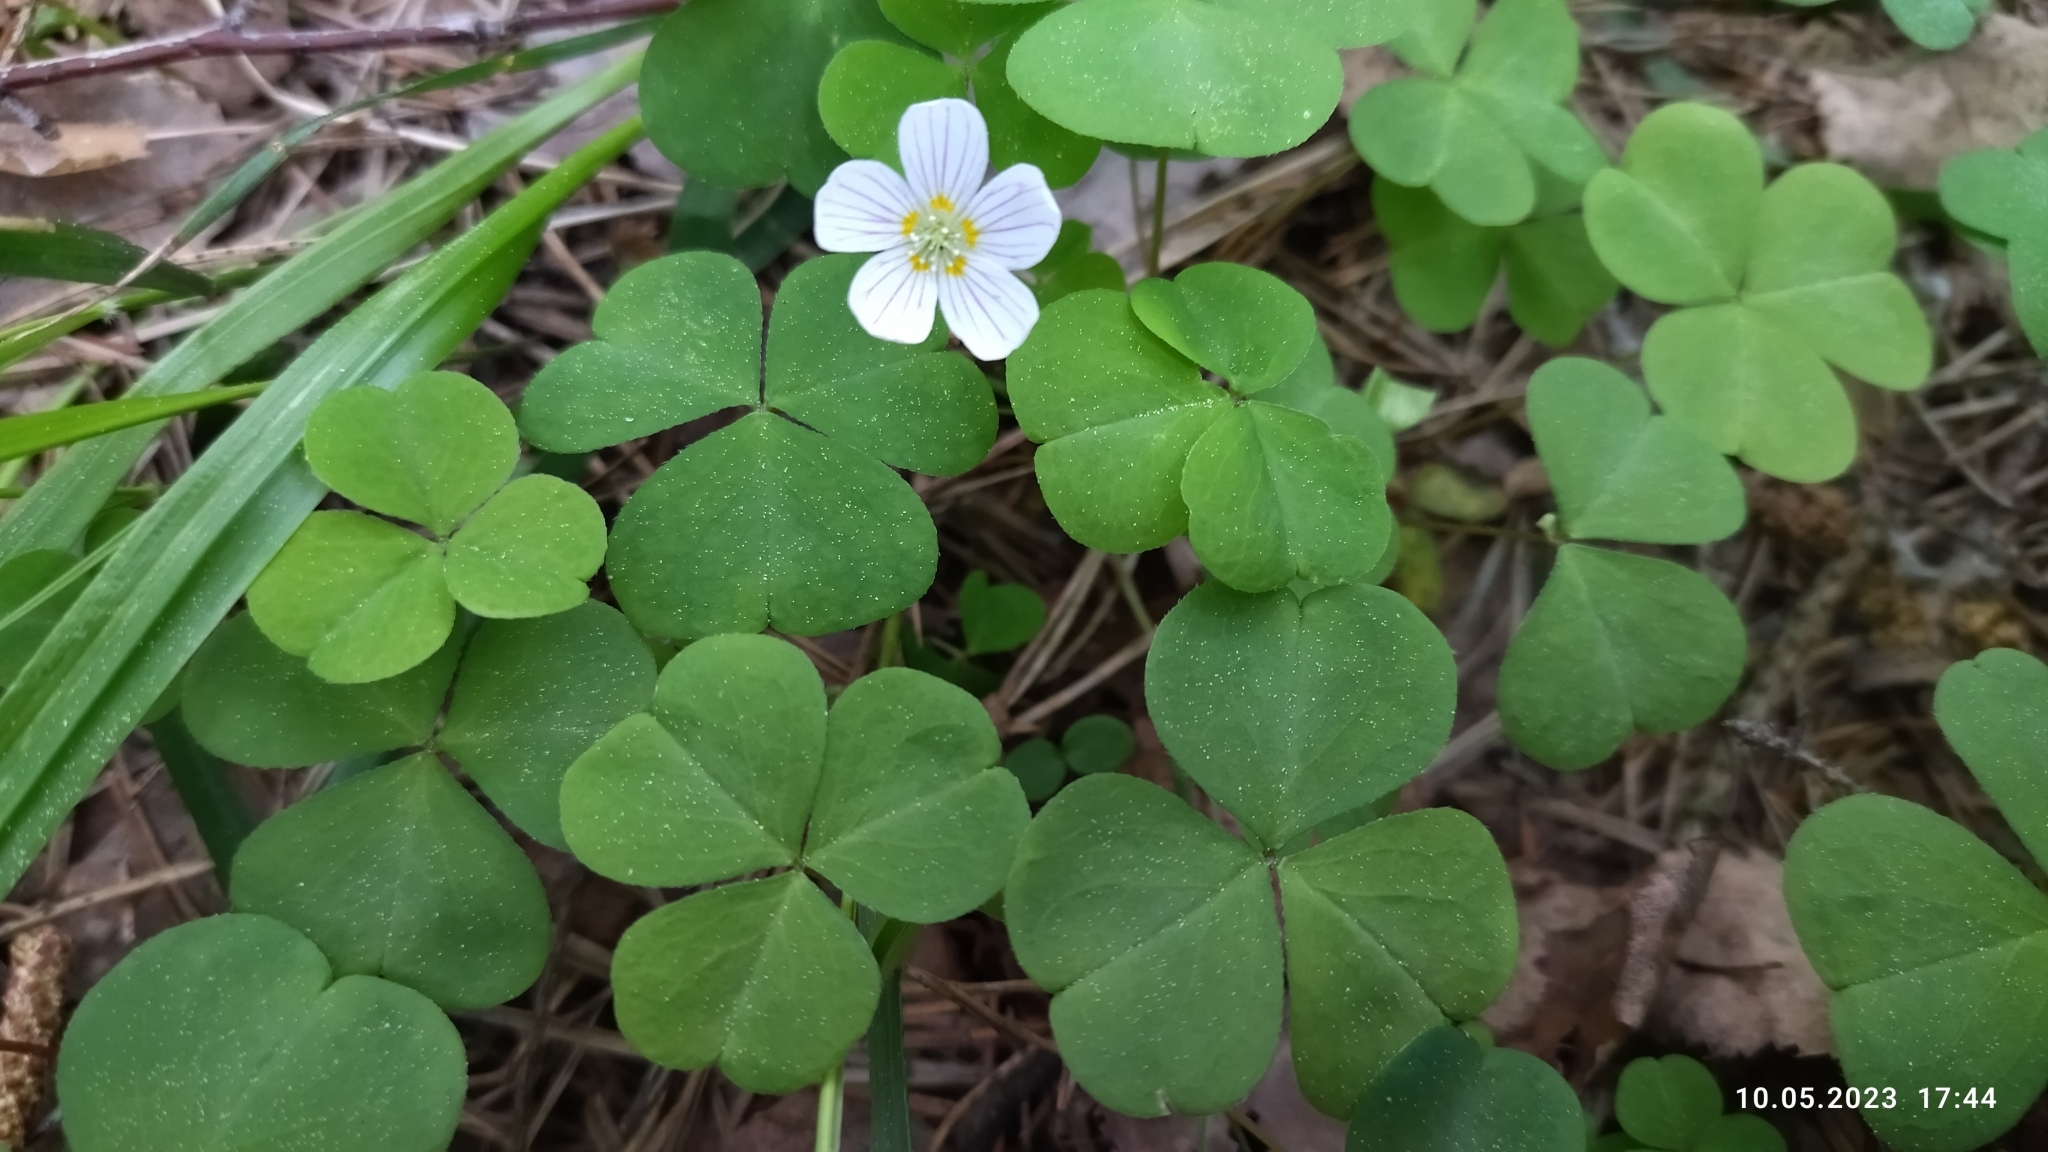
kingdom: Plantae
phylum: Tracheophyta
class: Magnoliopsida
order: Oxalidales
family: Oxalidaceae
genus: Oxalis
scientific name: Oxalis acetosella
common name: Wood-sorrel
